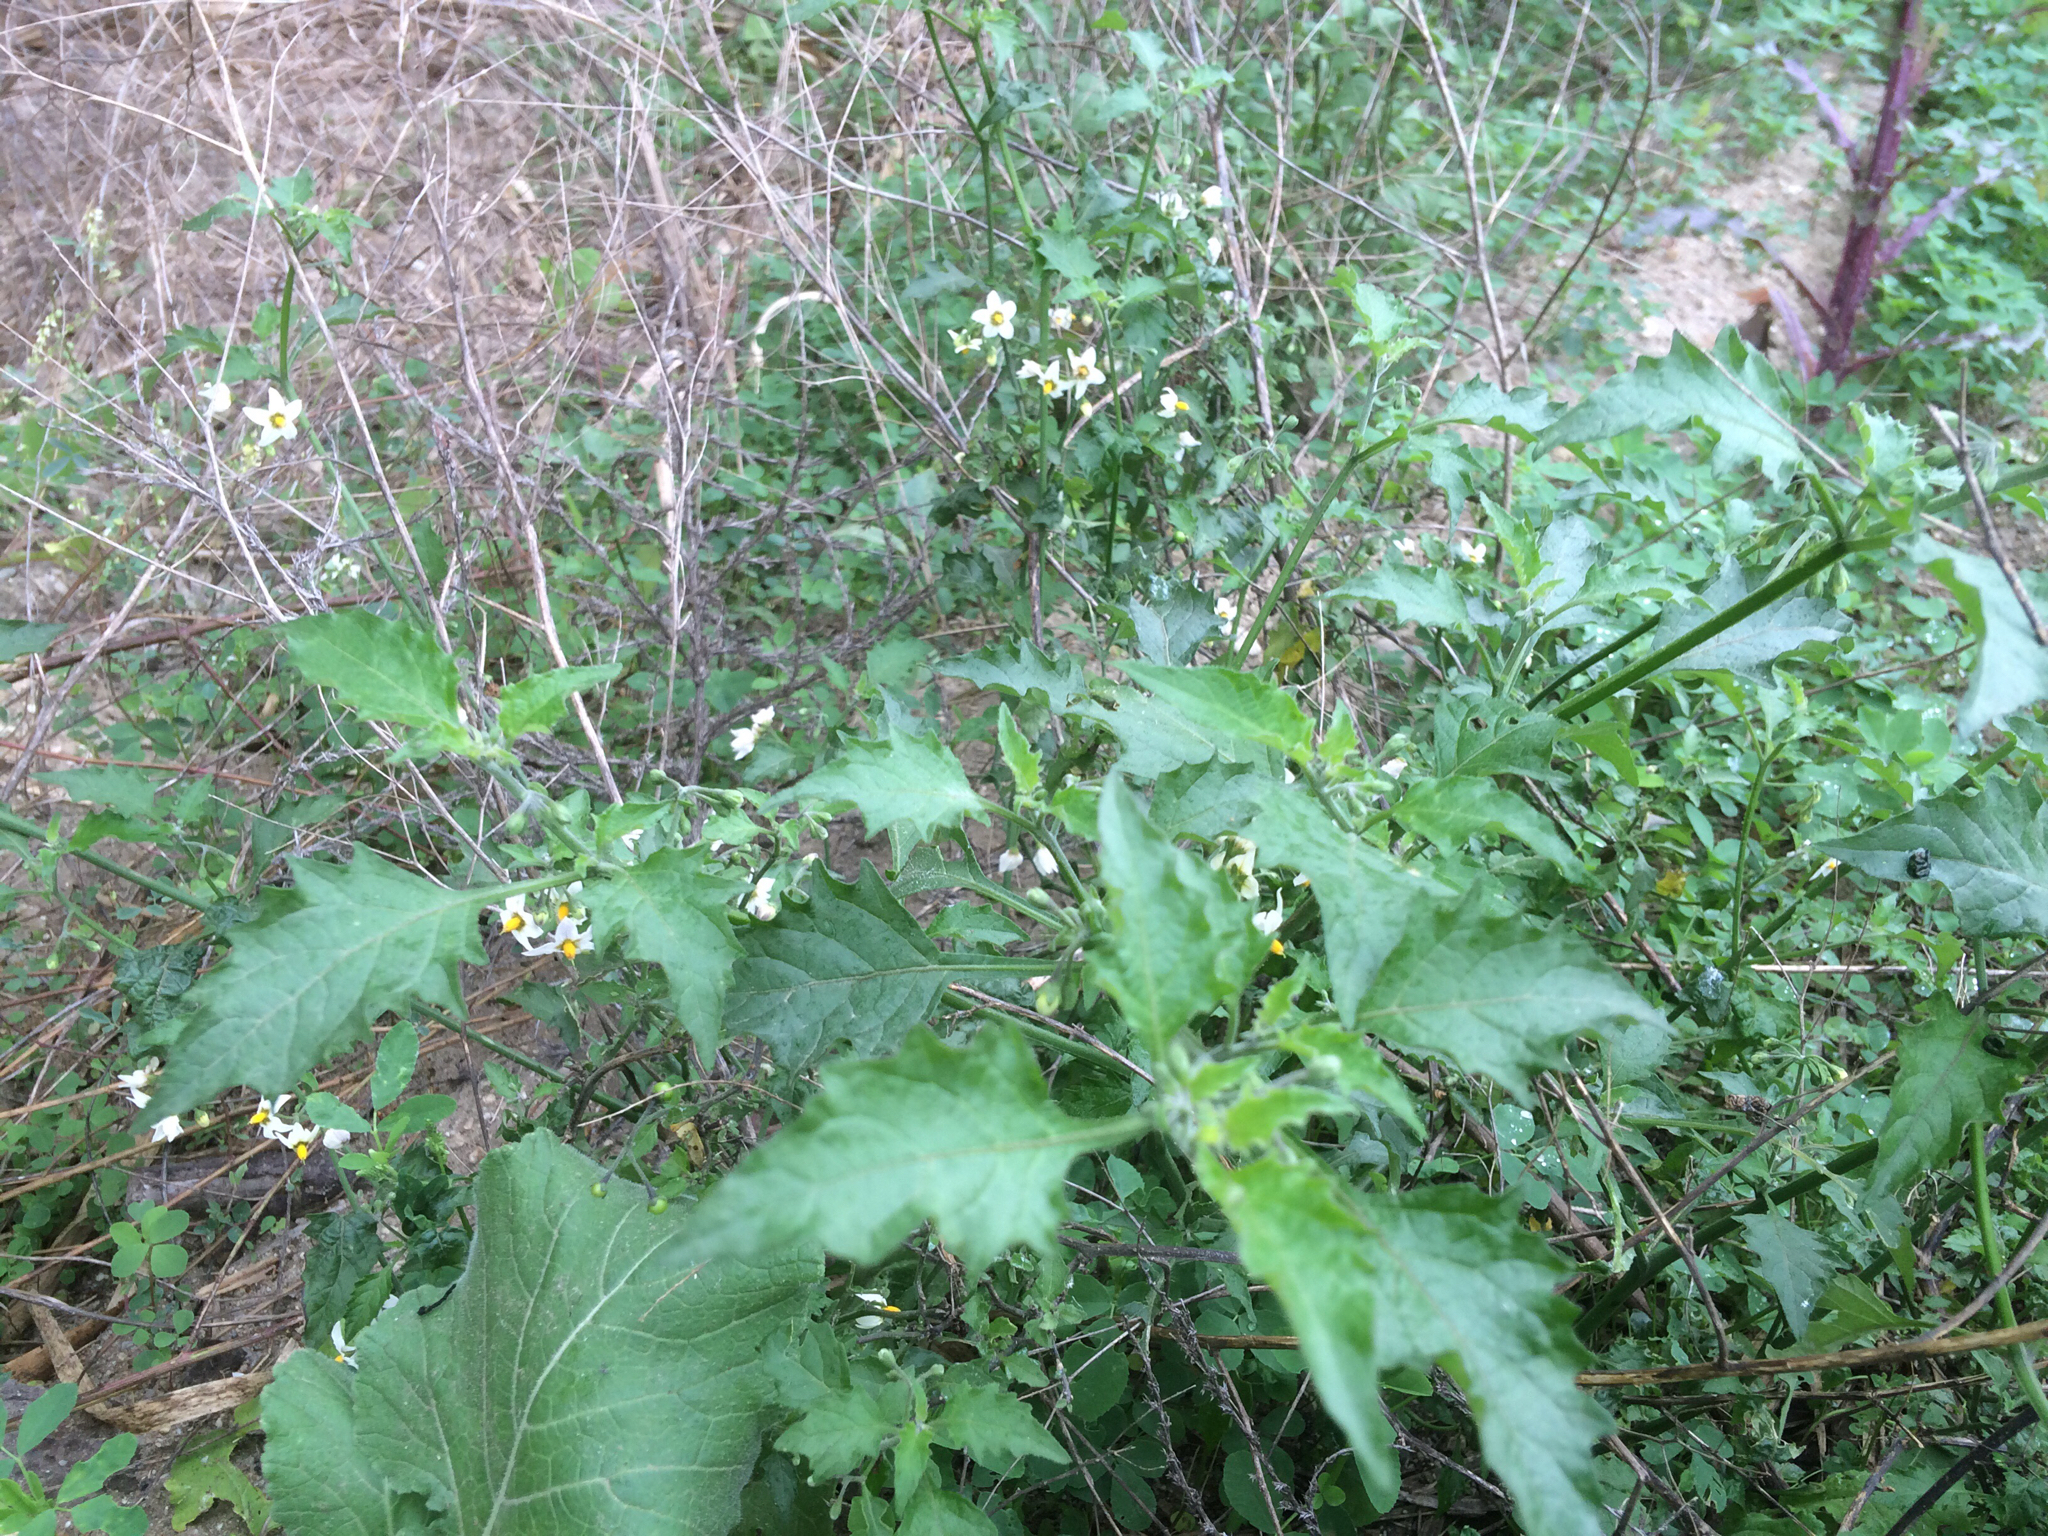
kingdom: Plantae
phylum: Tracheophyta
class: Magnoliopsida
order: Solanales
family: Solanaceae
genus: Solanum
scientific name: Solanum douglasii
